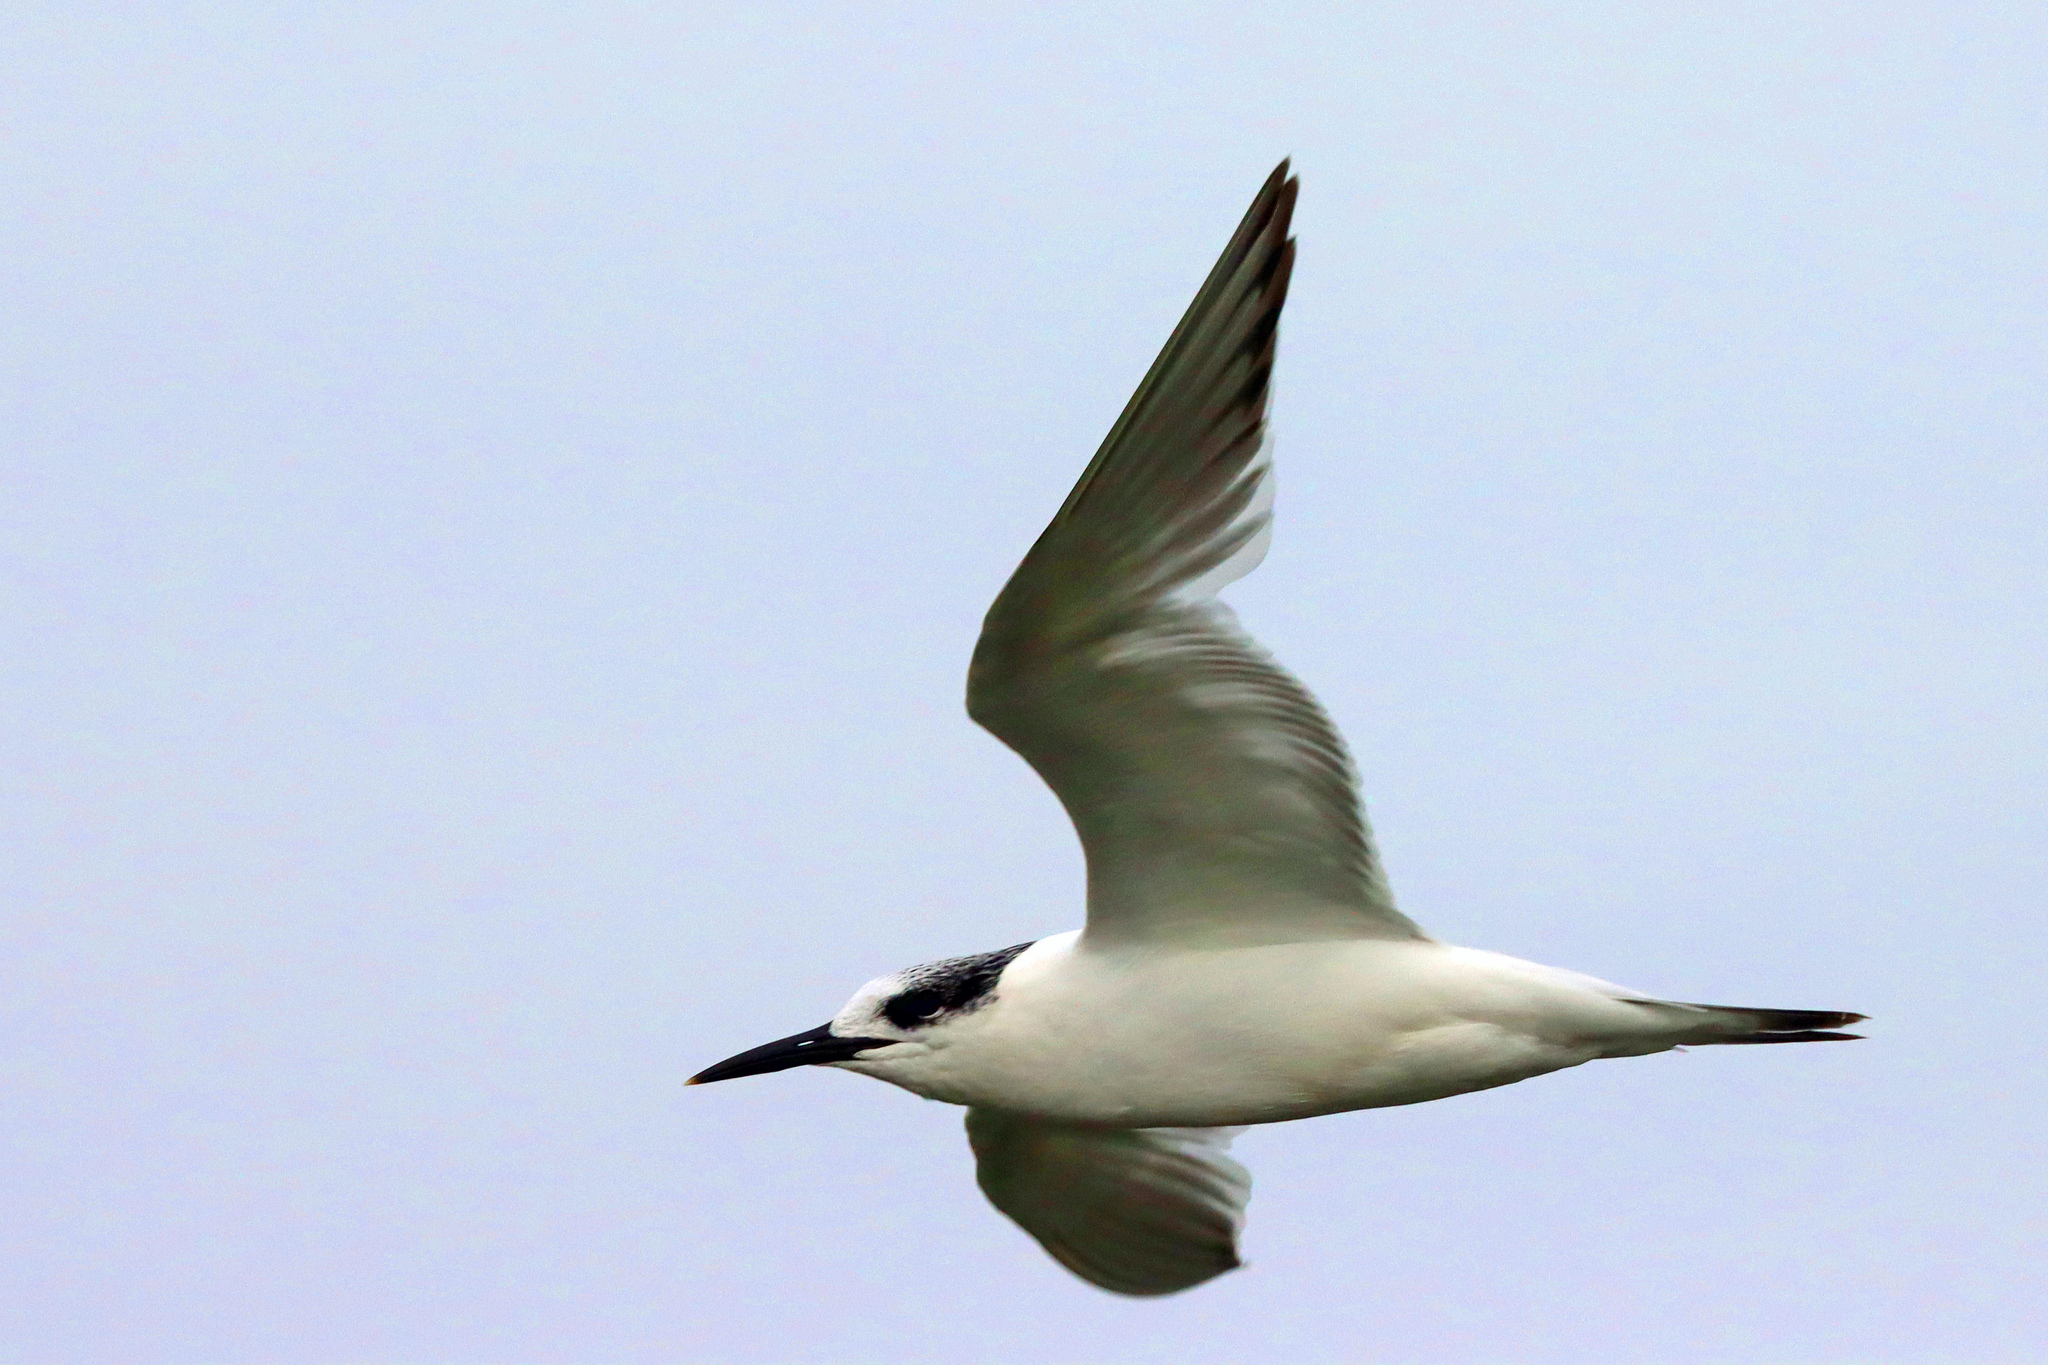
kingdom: Animalia
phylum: Chordata
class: Aves
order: Charadriiformes
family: Laridae
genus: Thalasseus
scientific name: Thalasseus sandvicensis
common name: Sandwich tern
